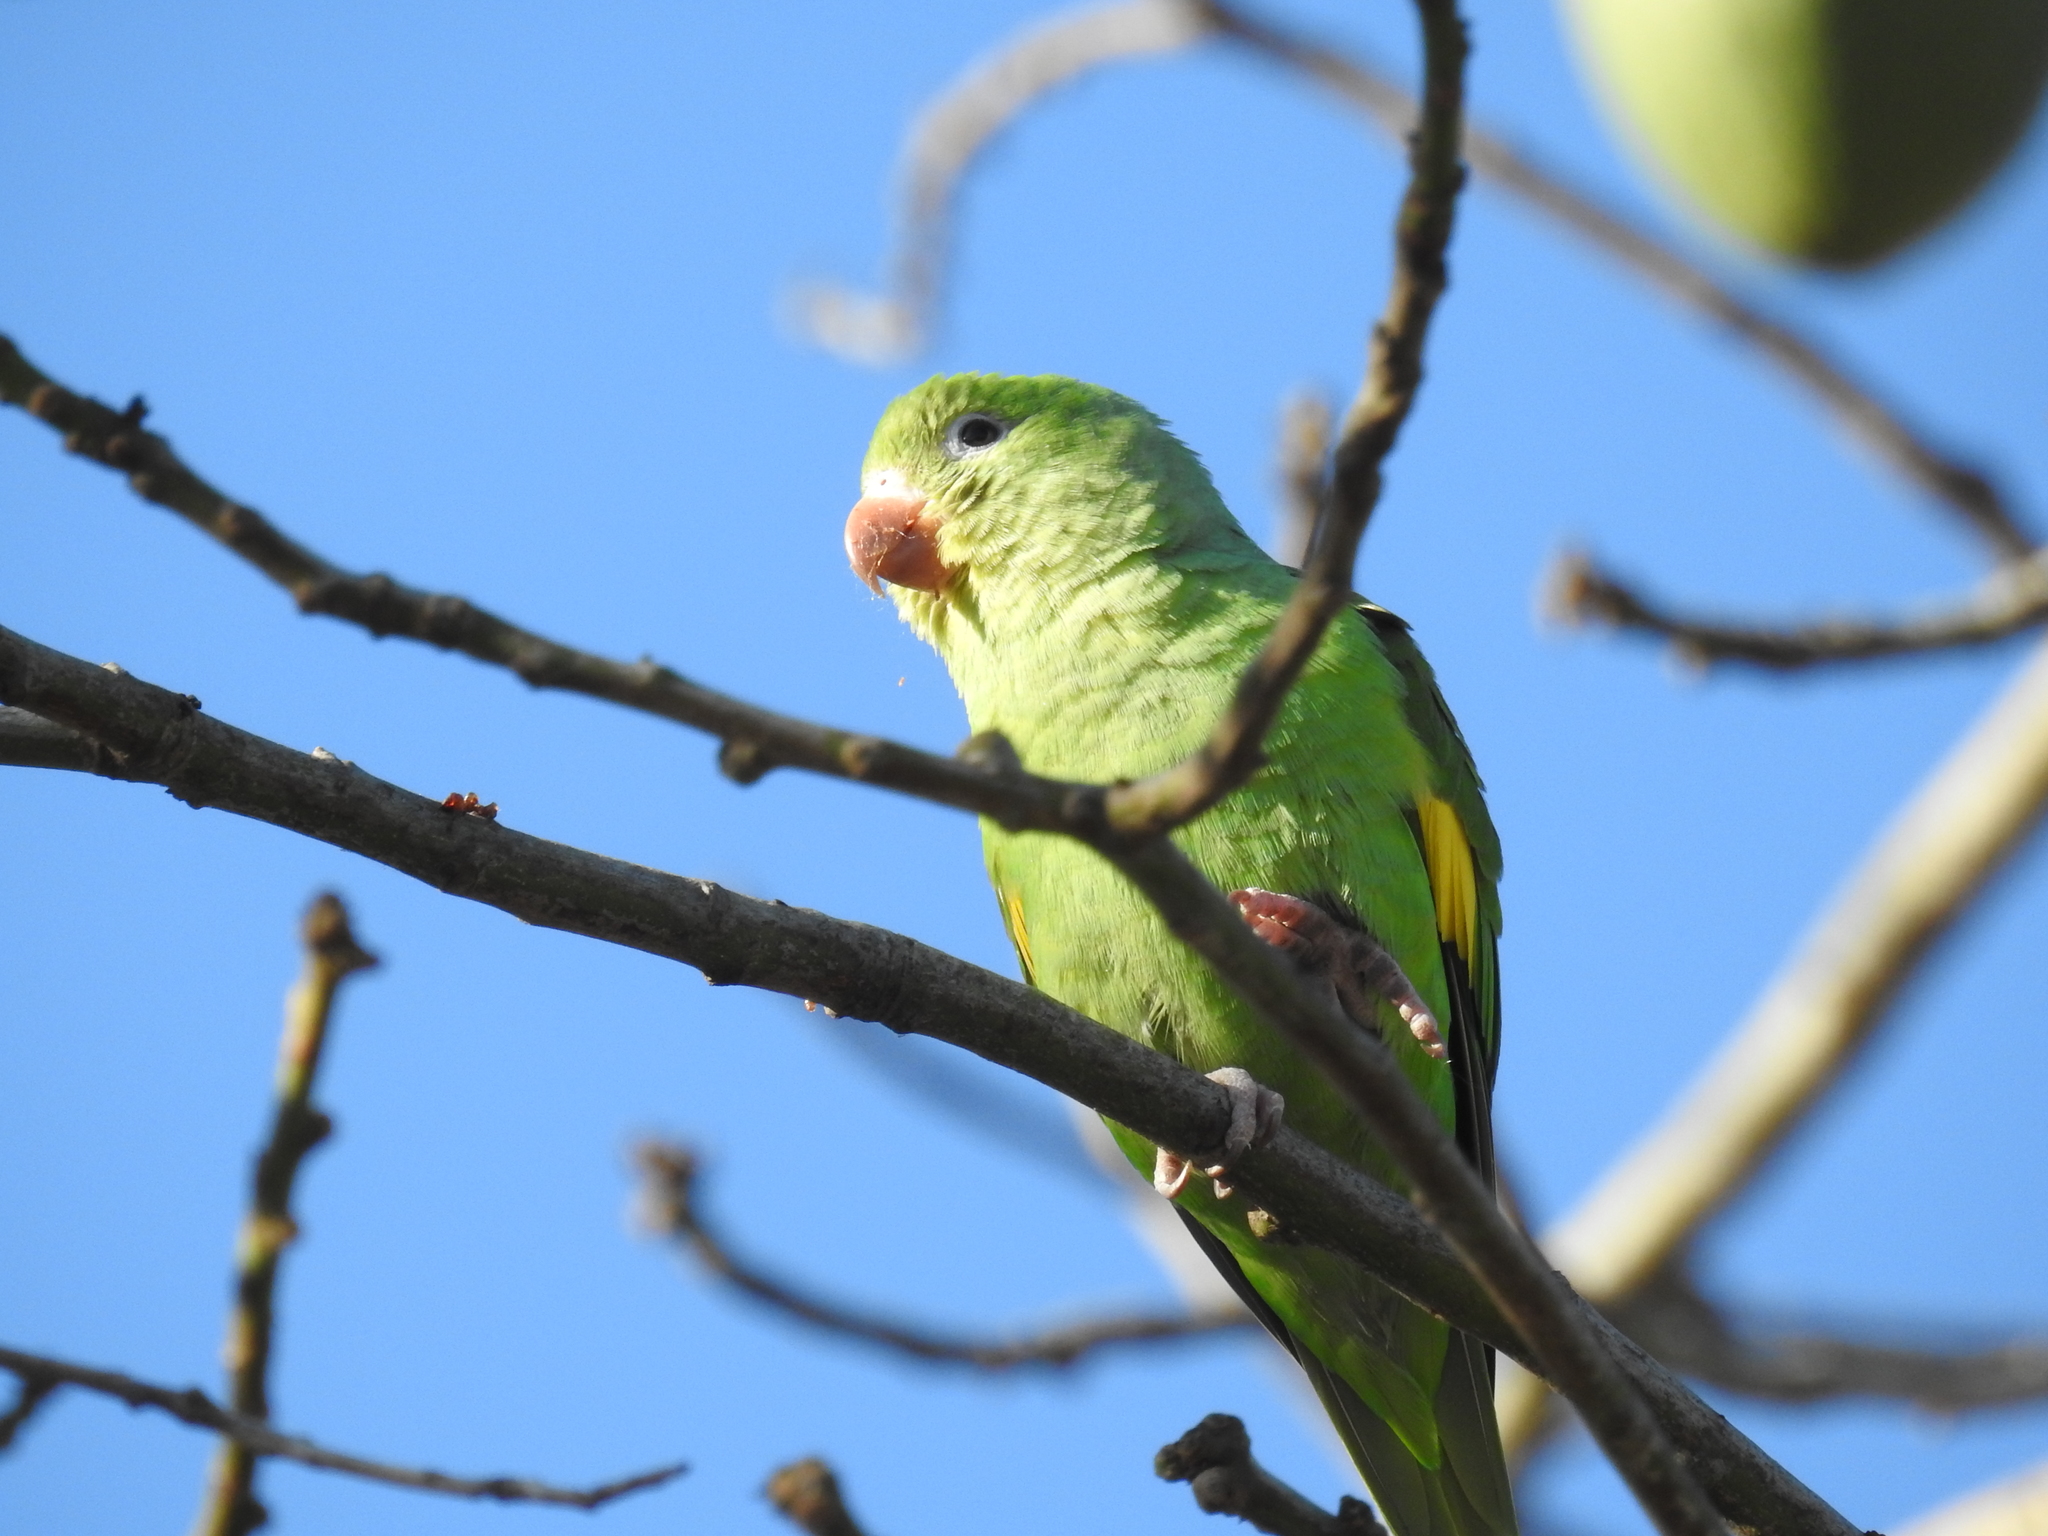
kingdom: Animalia
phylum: Chordata
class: Aves
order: Psittaciformes
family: Psittacidae
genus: Brotogeris
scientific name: Brotogeris chiriri
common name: Yellow-chevroned parakeet
